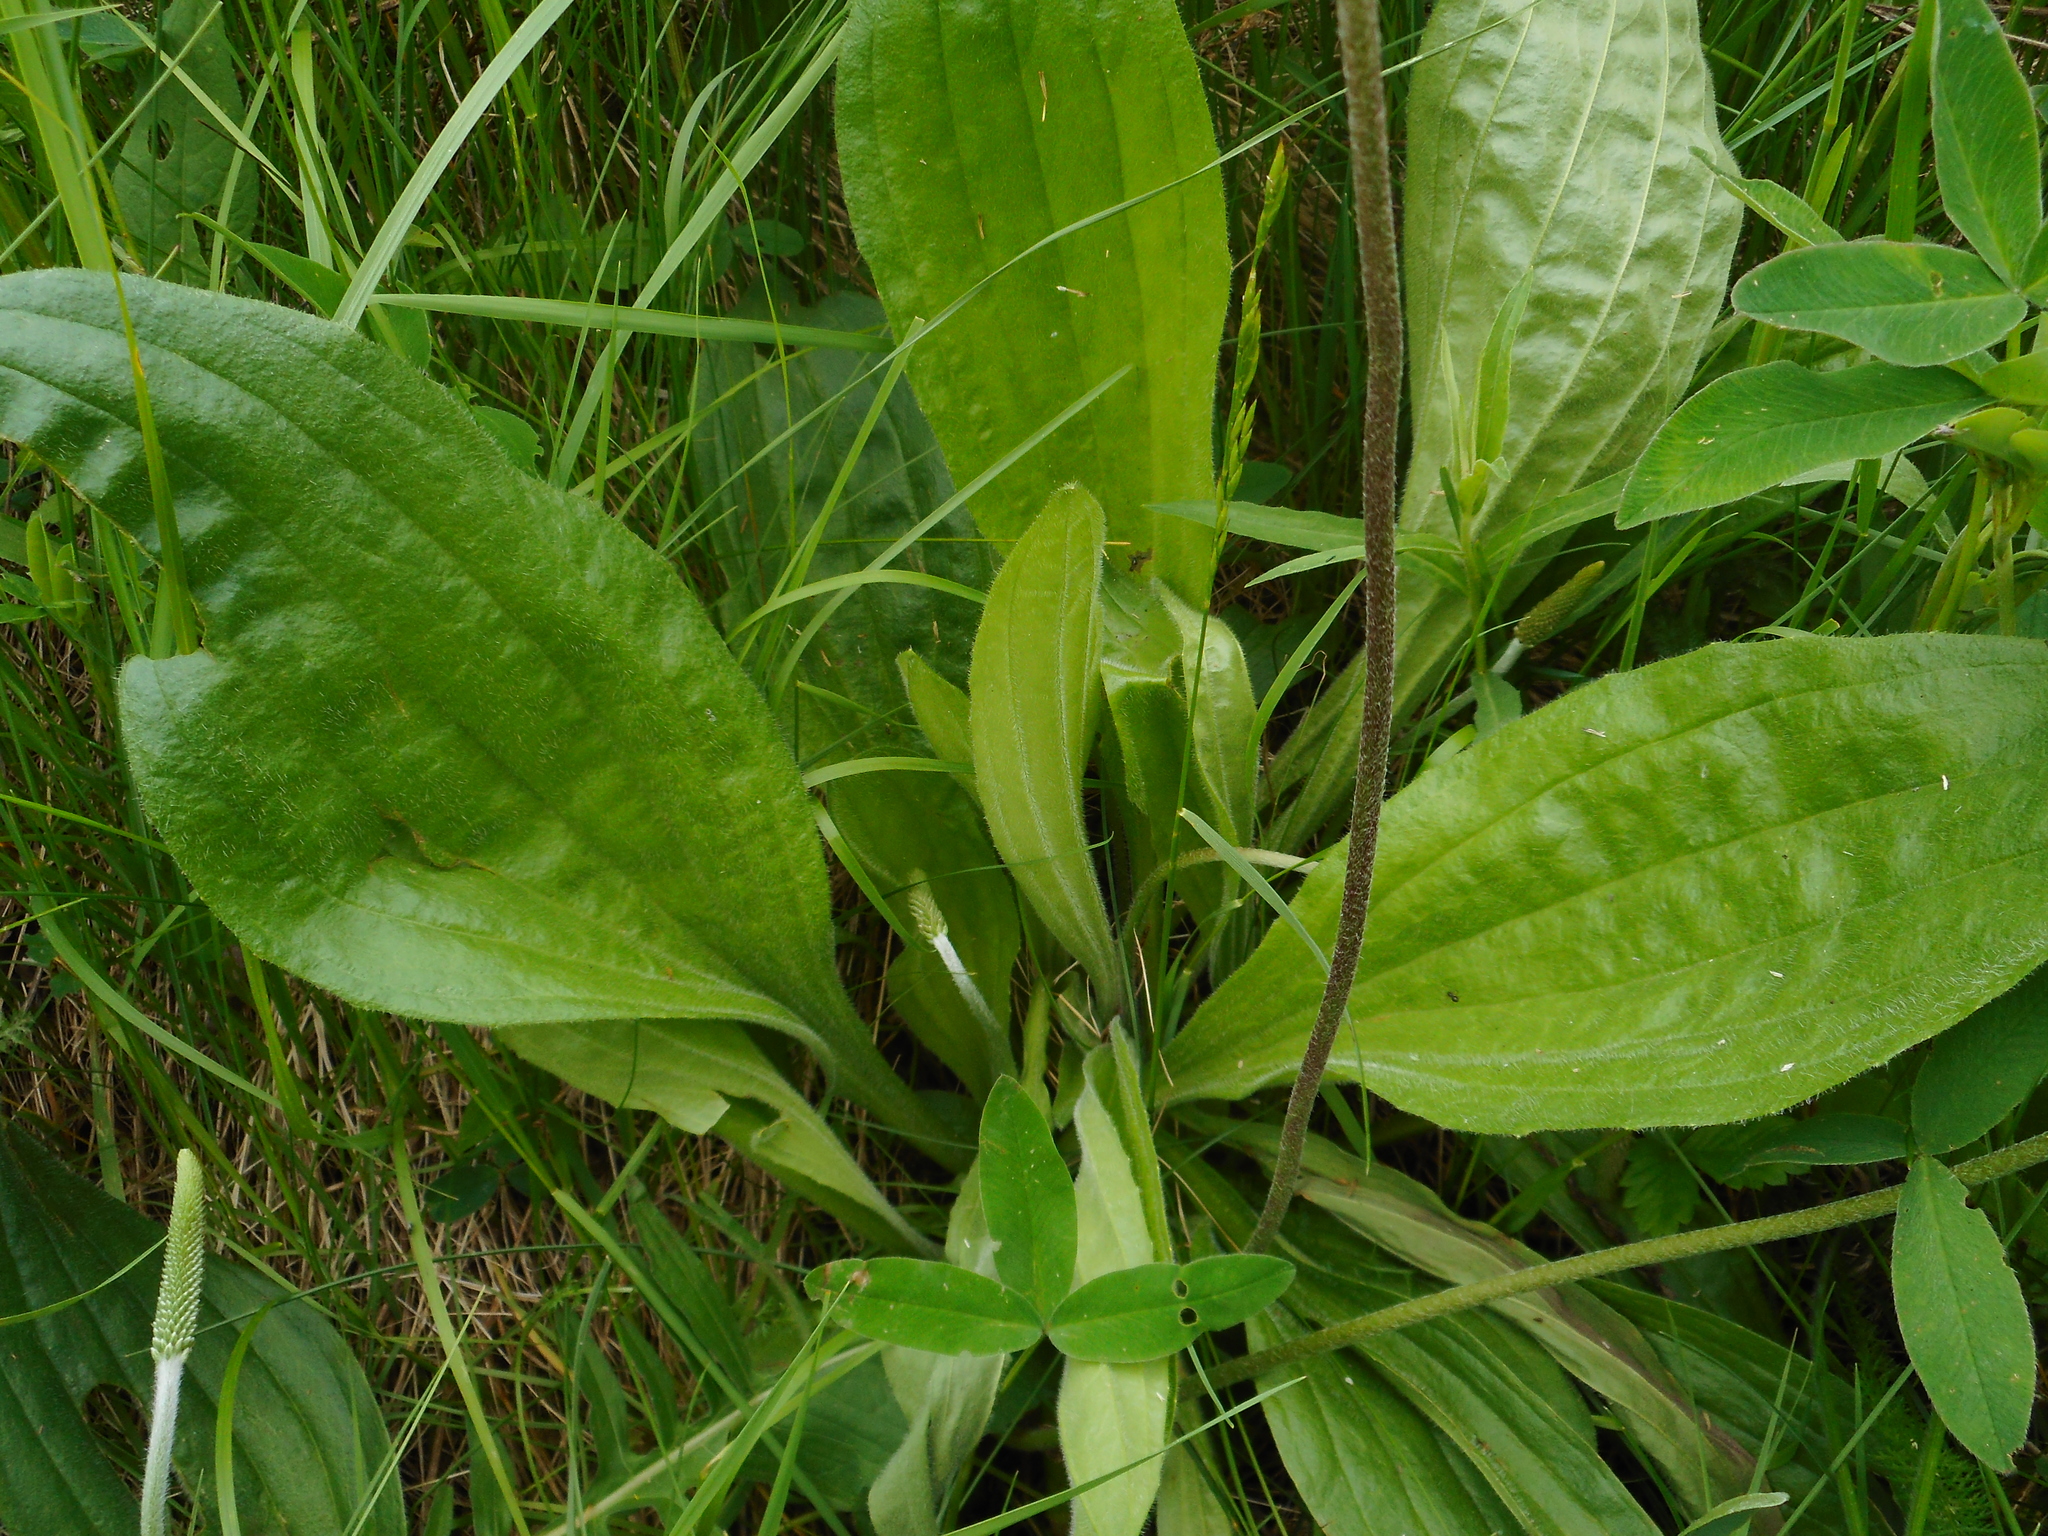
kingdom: Plantae
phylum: Tracheophyta
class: Magnoliopsida
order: Lamiales
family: Plantaginaceae
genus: Plantago
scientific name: Plantago media
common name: Hoary plantain
